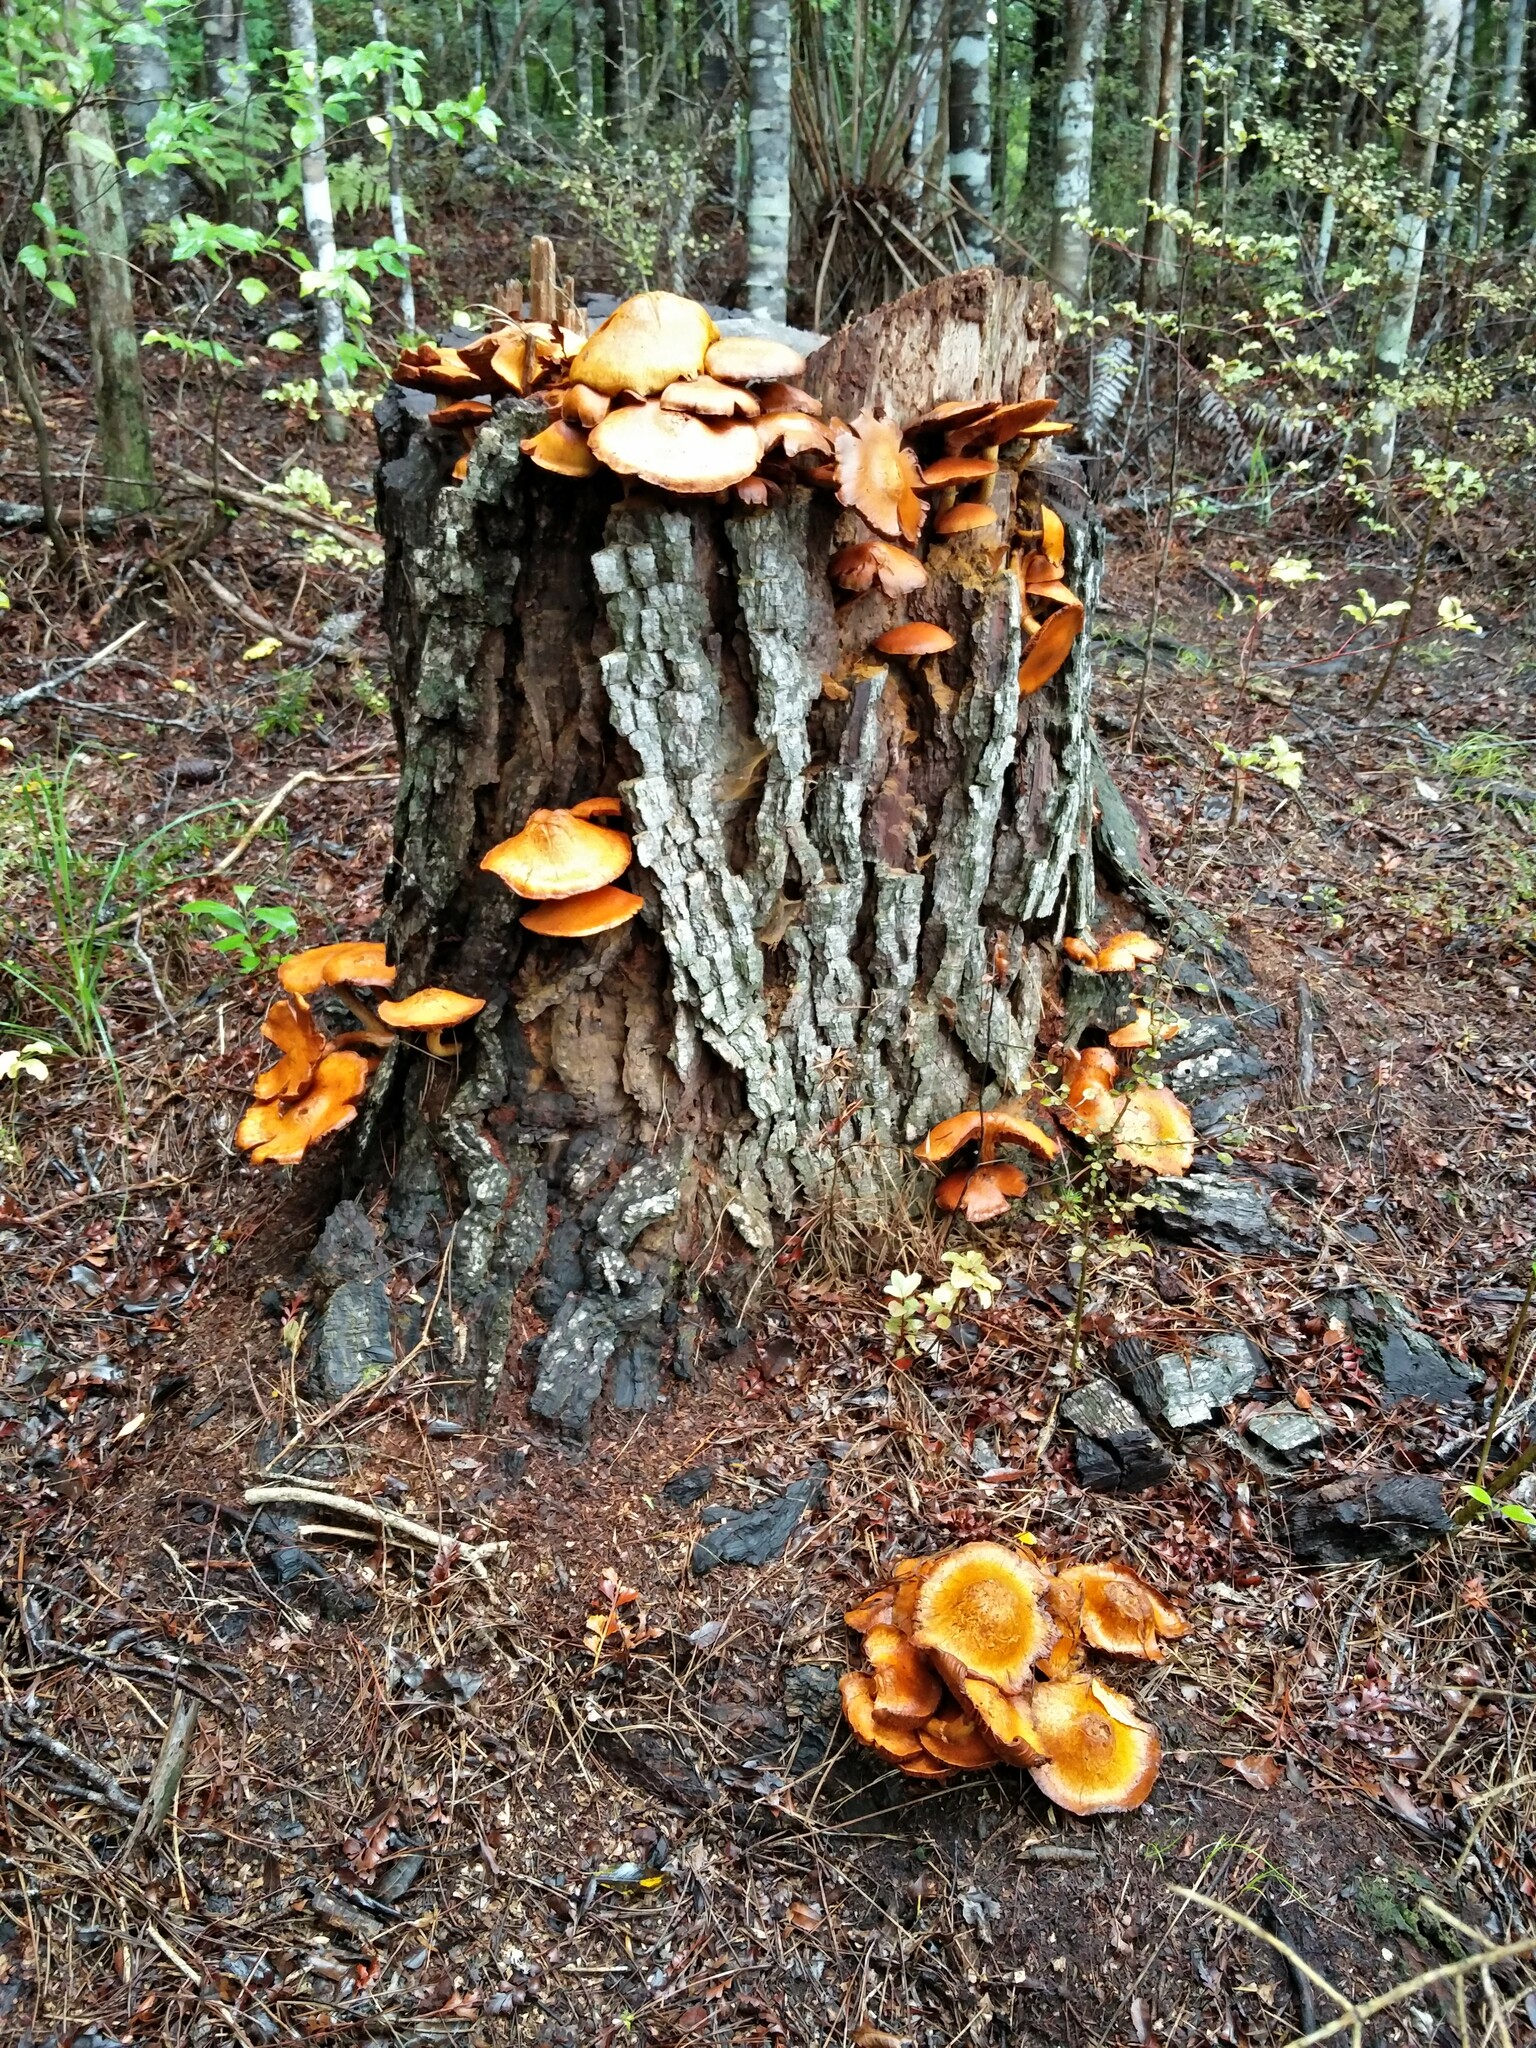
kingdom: Fungi
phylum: Basidiomycota
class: Agaricomycetes
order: Agaricales
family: Hymenogastraceae
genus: Gymnopilus
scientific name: Gymnopilus junonius
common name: Spectacular rustgill
